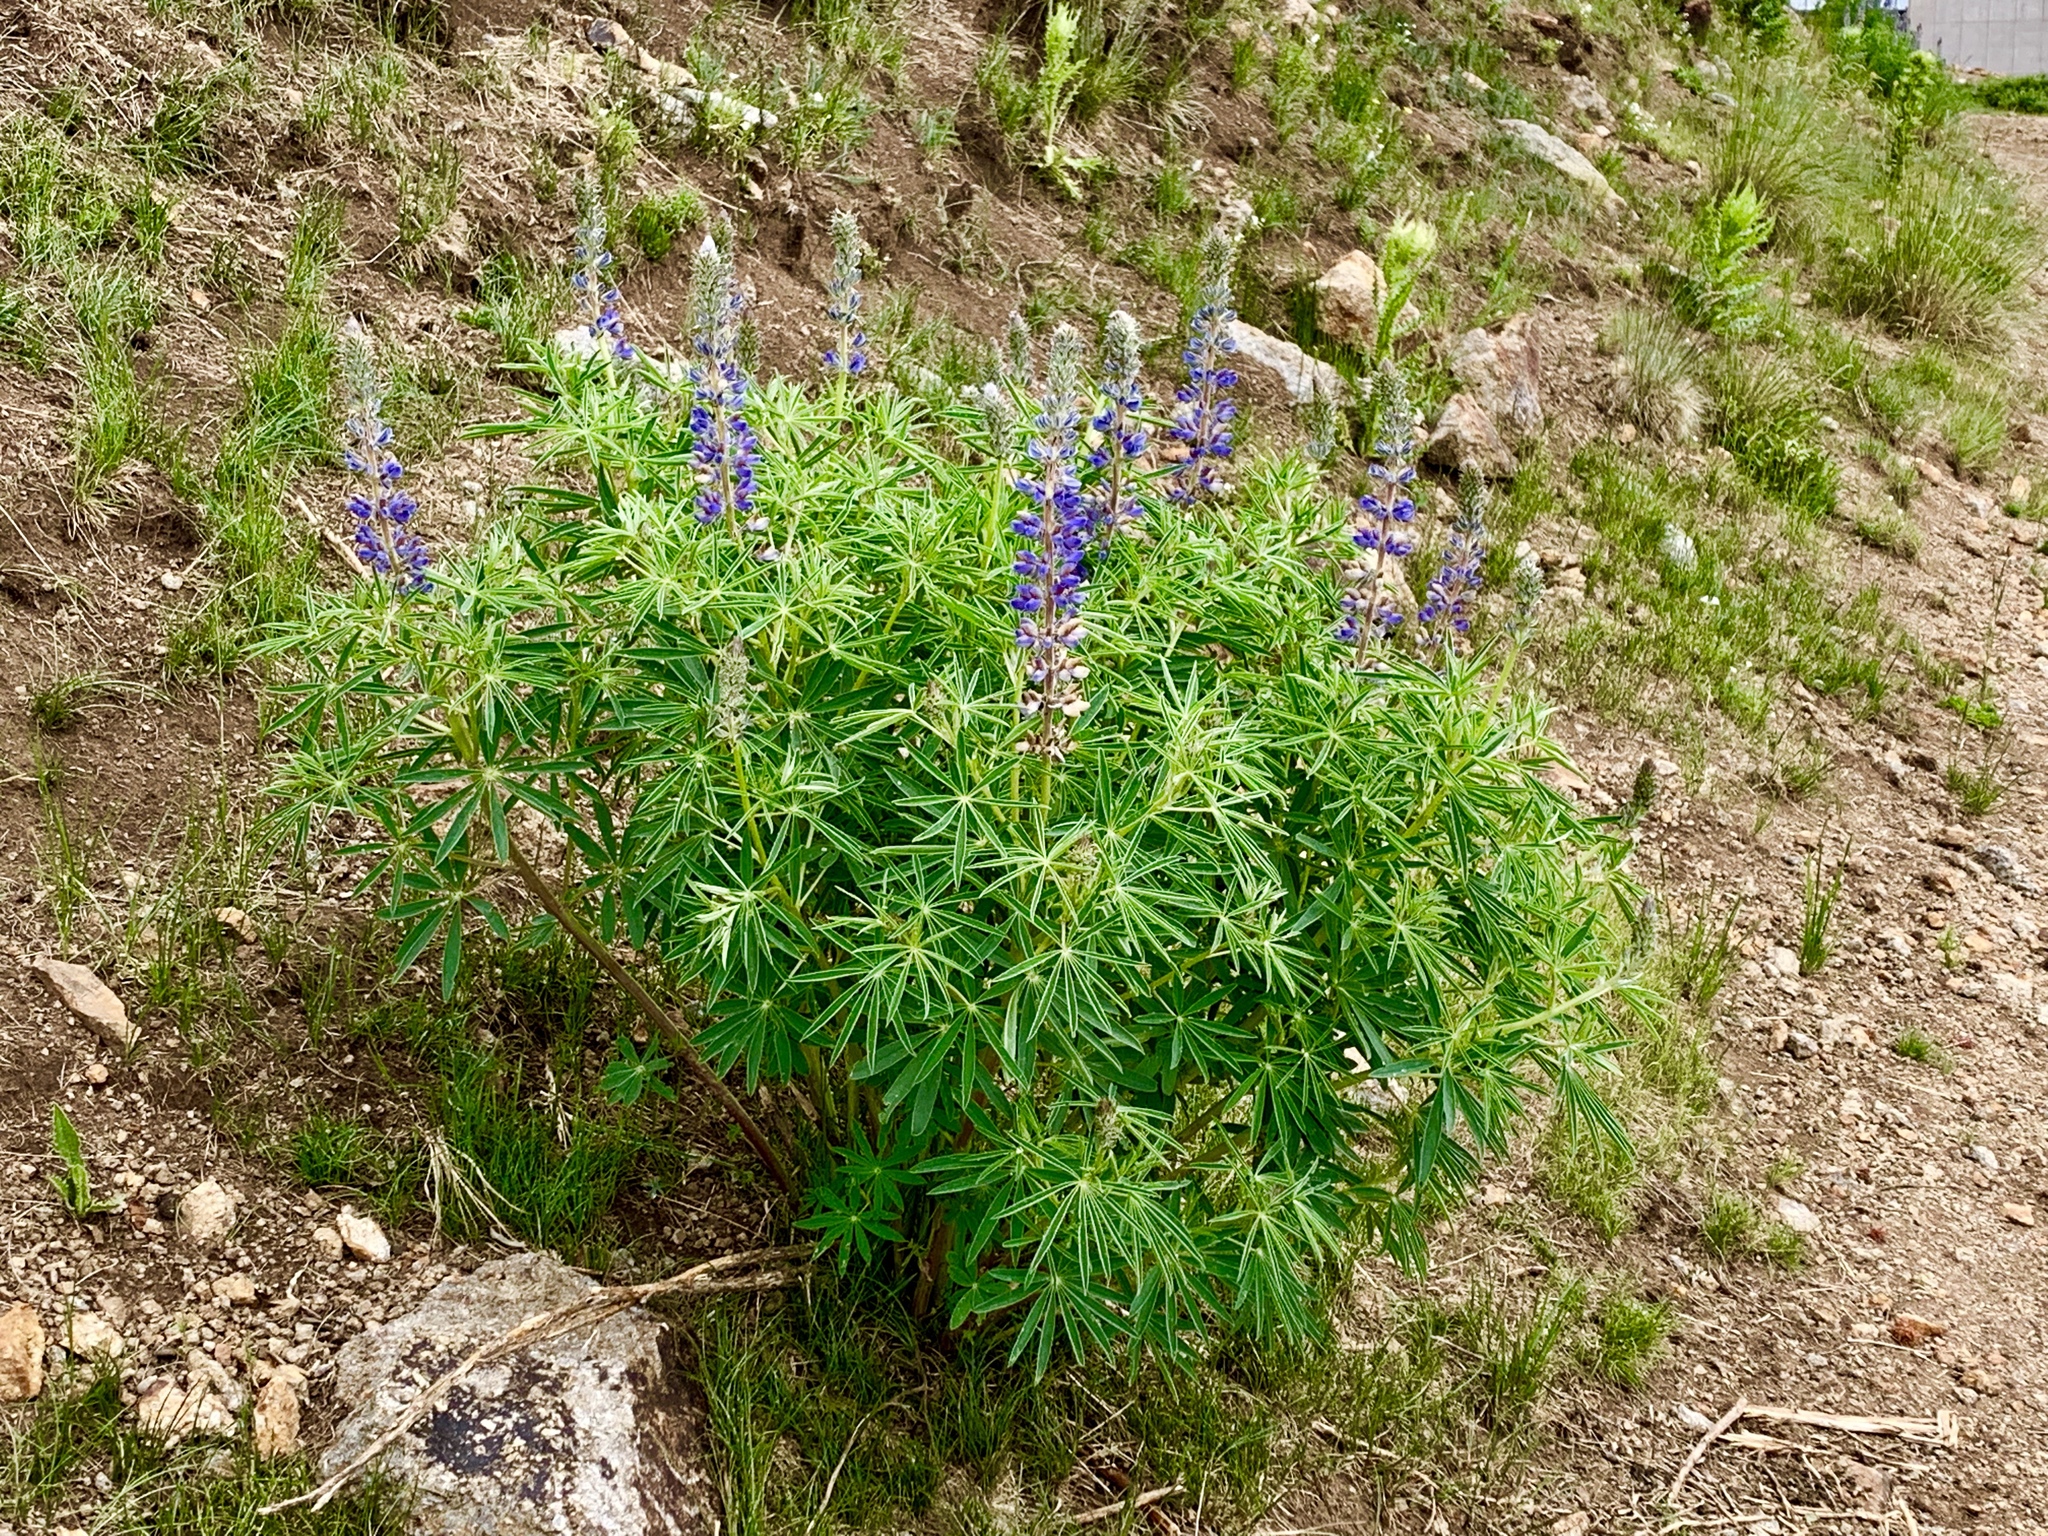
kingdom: Plantae
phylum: Tracheophyta
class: Magnoliopsida
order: Fabales
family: Fabaceae
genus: Lupinus
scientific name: Lupinus sierrae-blancae
